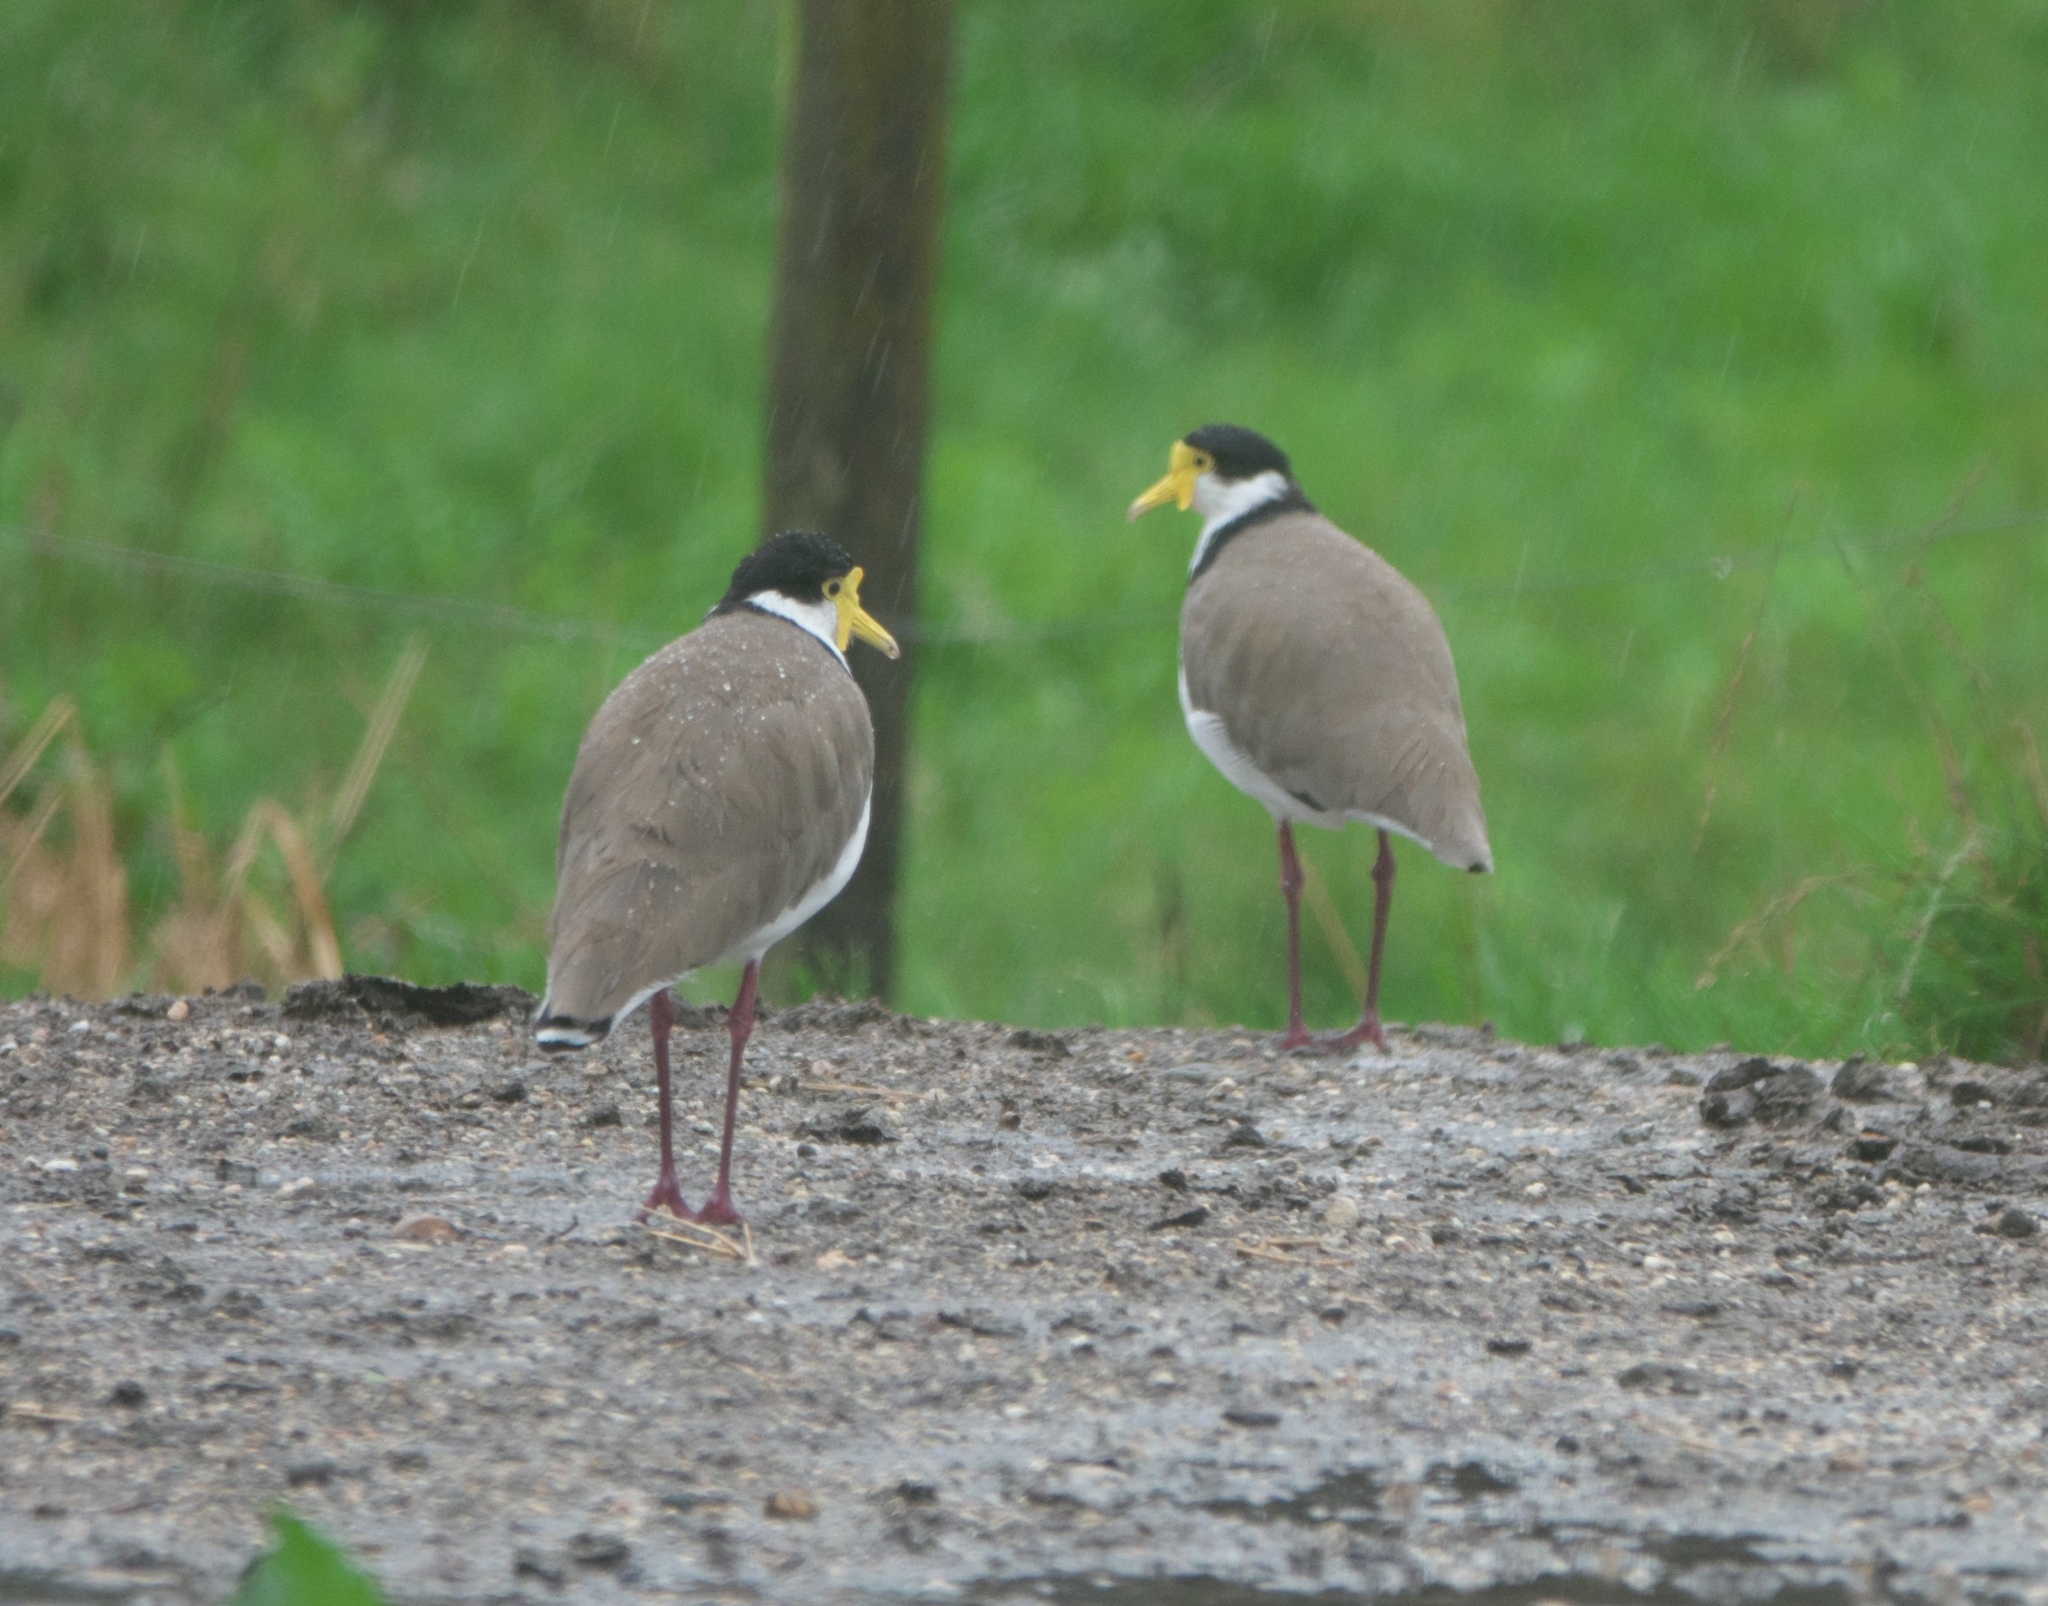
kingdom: Animalia
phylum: Chordata
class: Aves
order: Charadriiformes
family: Charadriidae
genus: Vanellus
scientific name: Vanellus miles
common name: Masked lapwing
